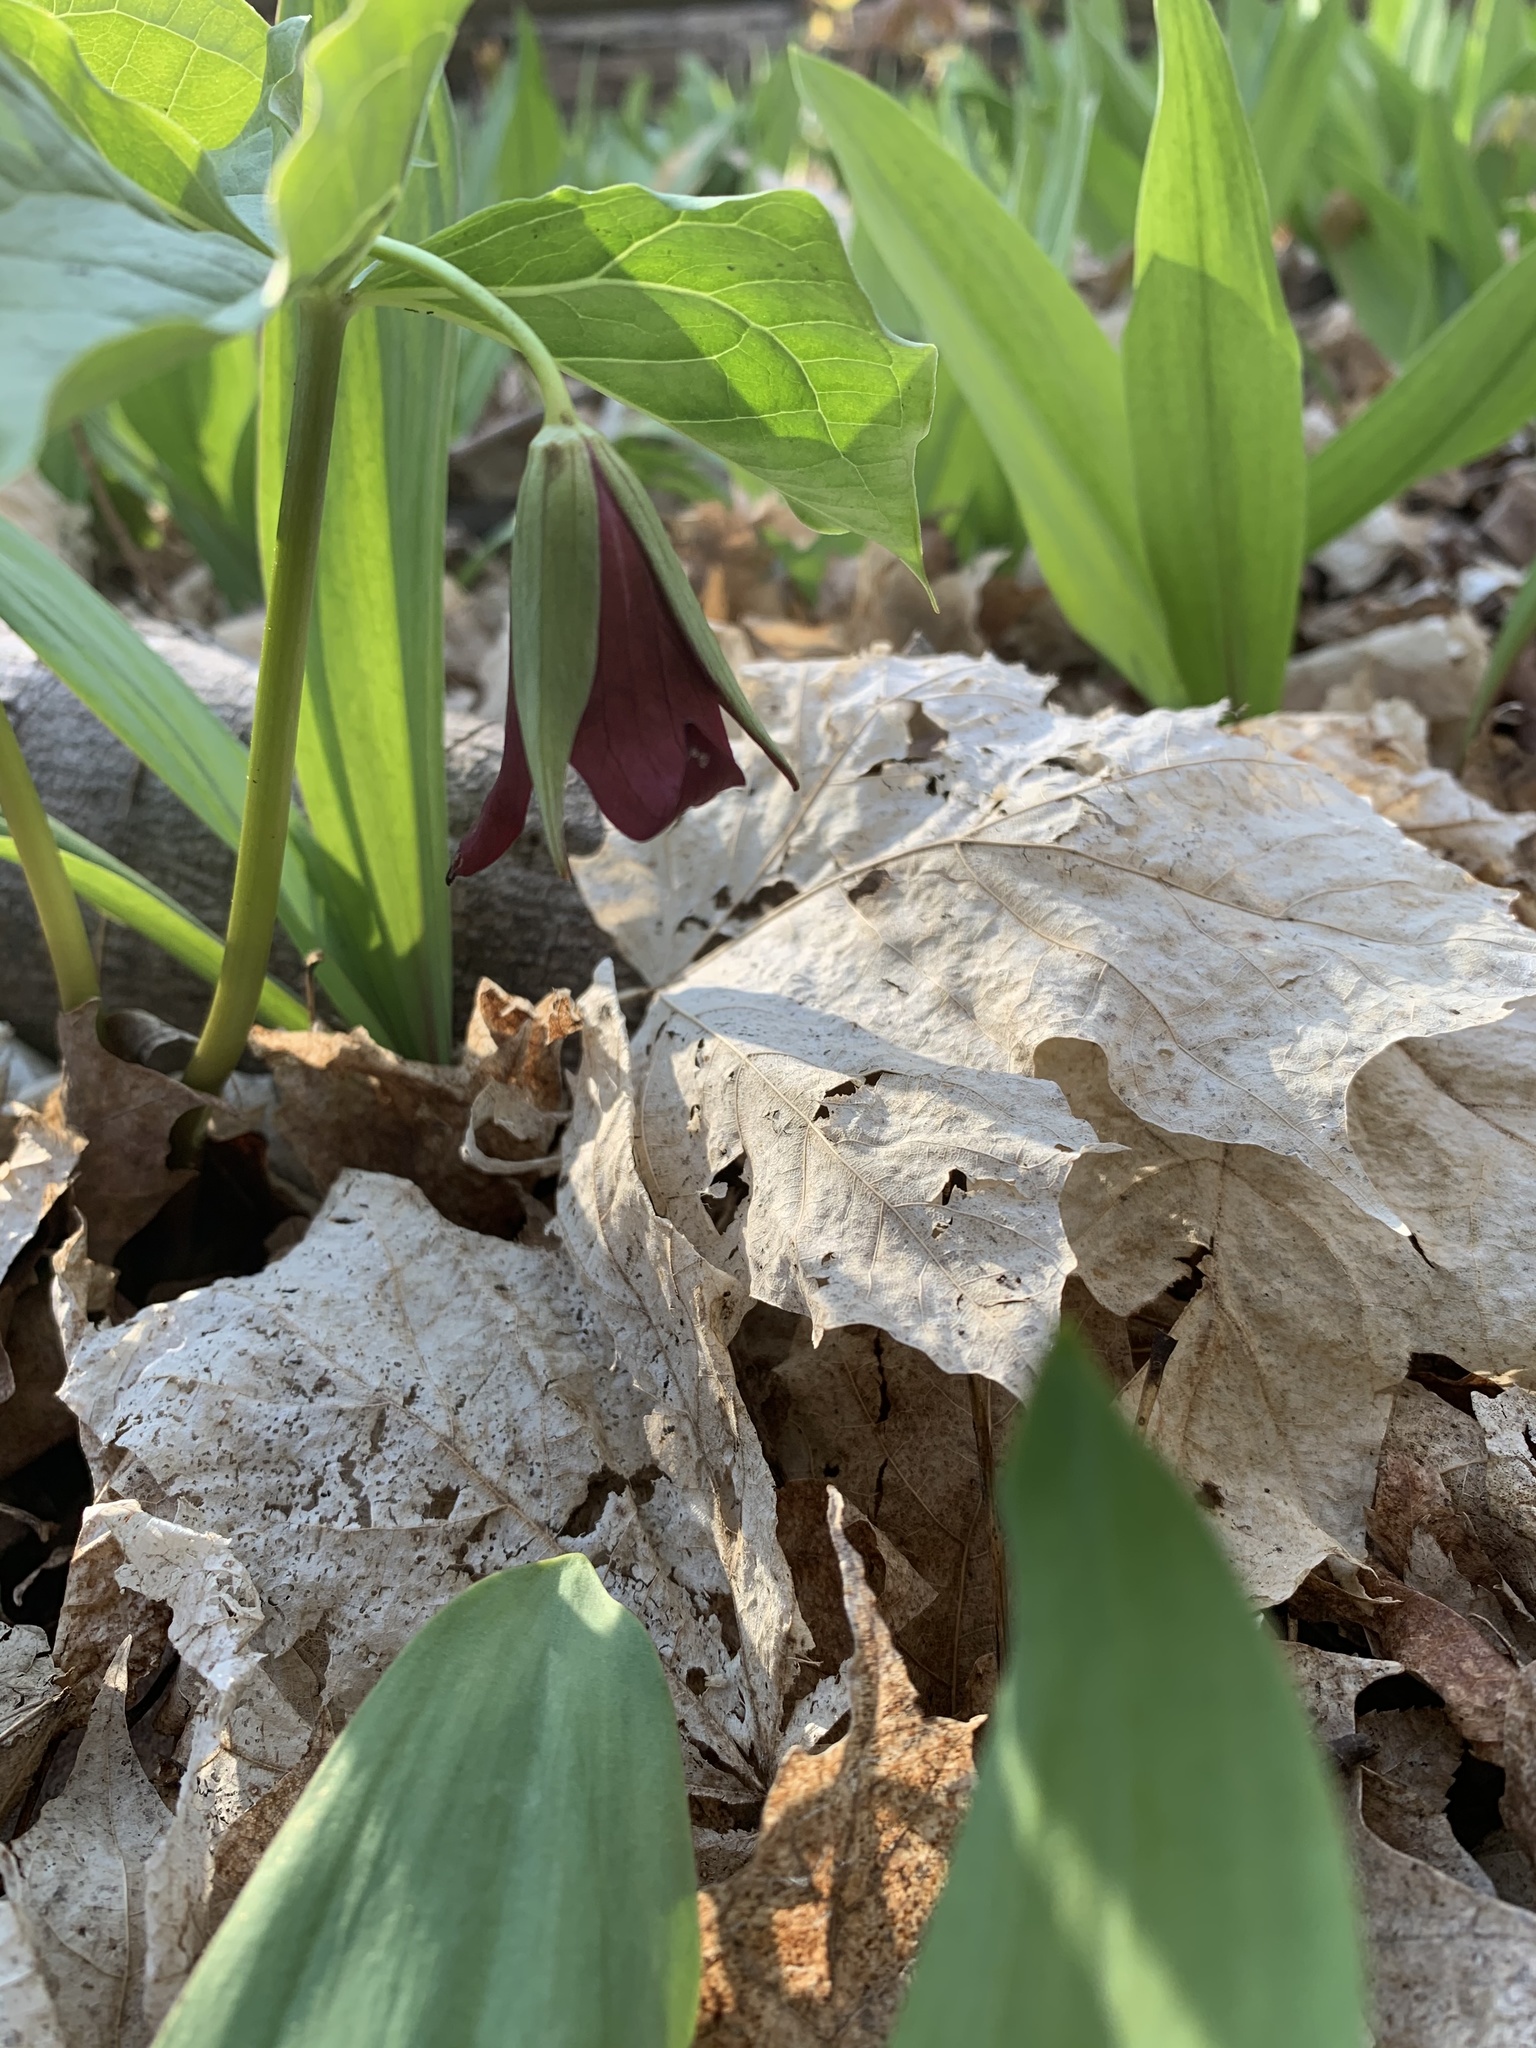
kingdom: Plantae
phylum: Tracheophyta
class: Liliopsida
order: Liliales
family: Melanthiaceae
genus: Trillium
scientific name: Trillium erectum
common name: Purple trillium
